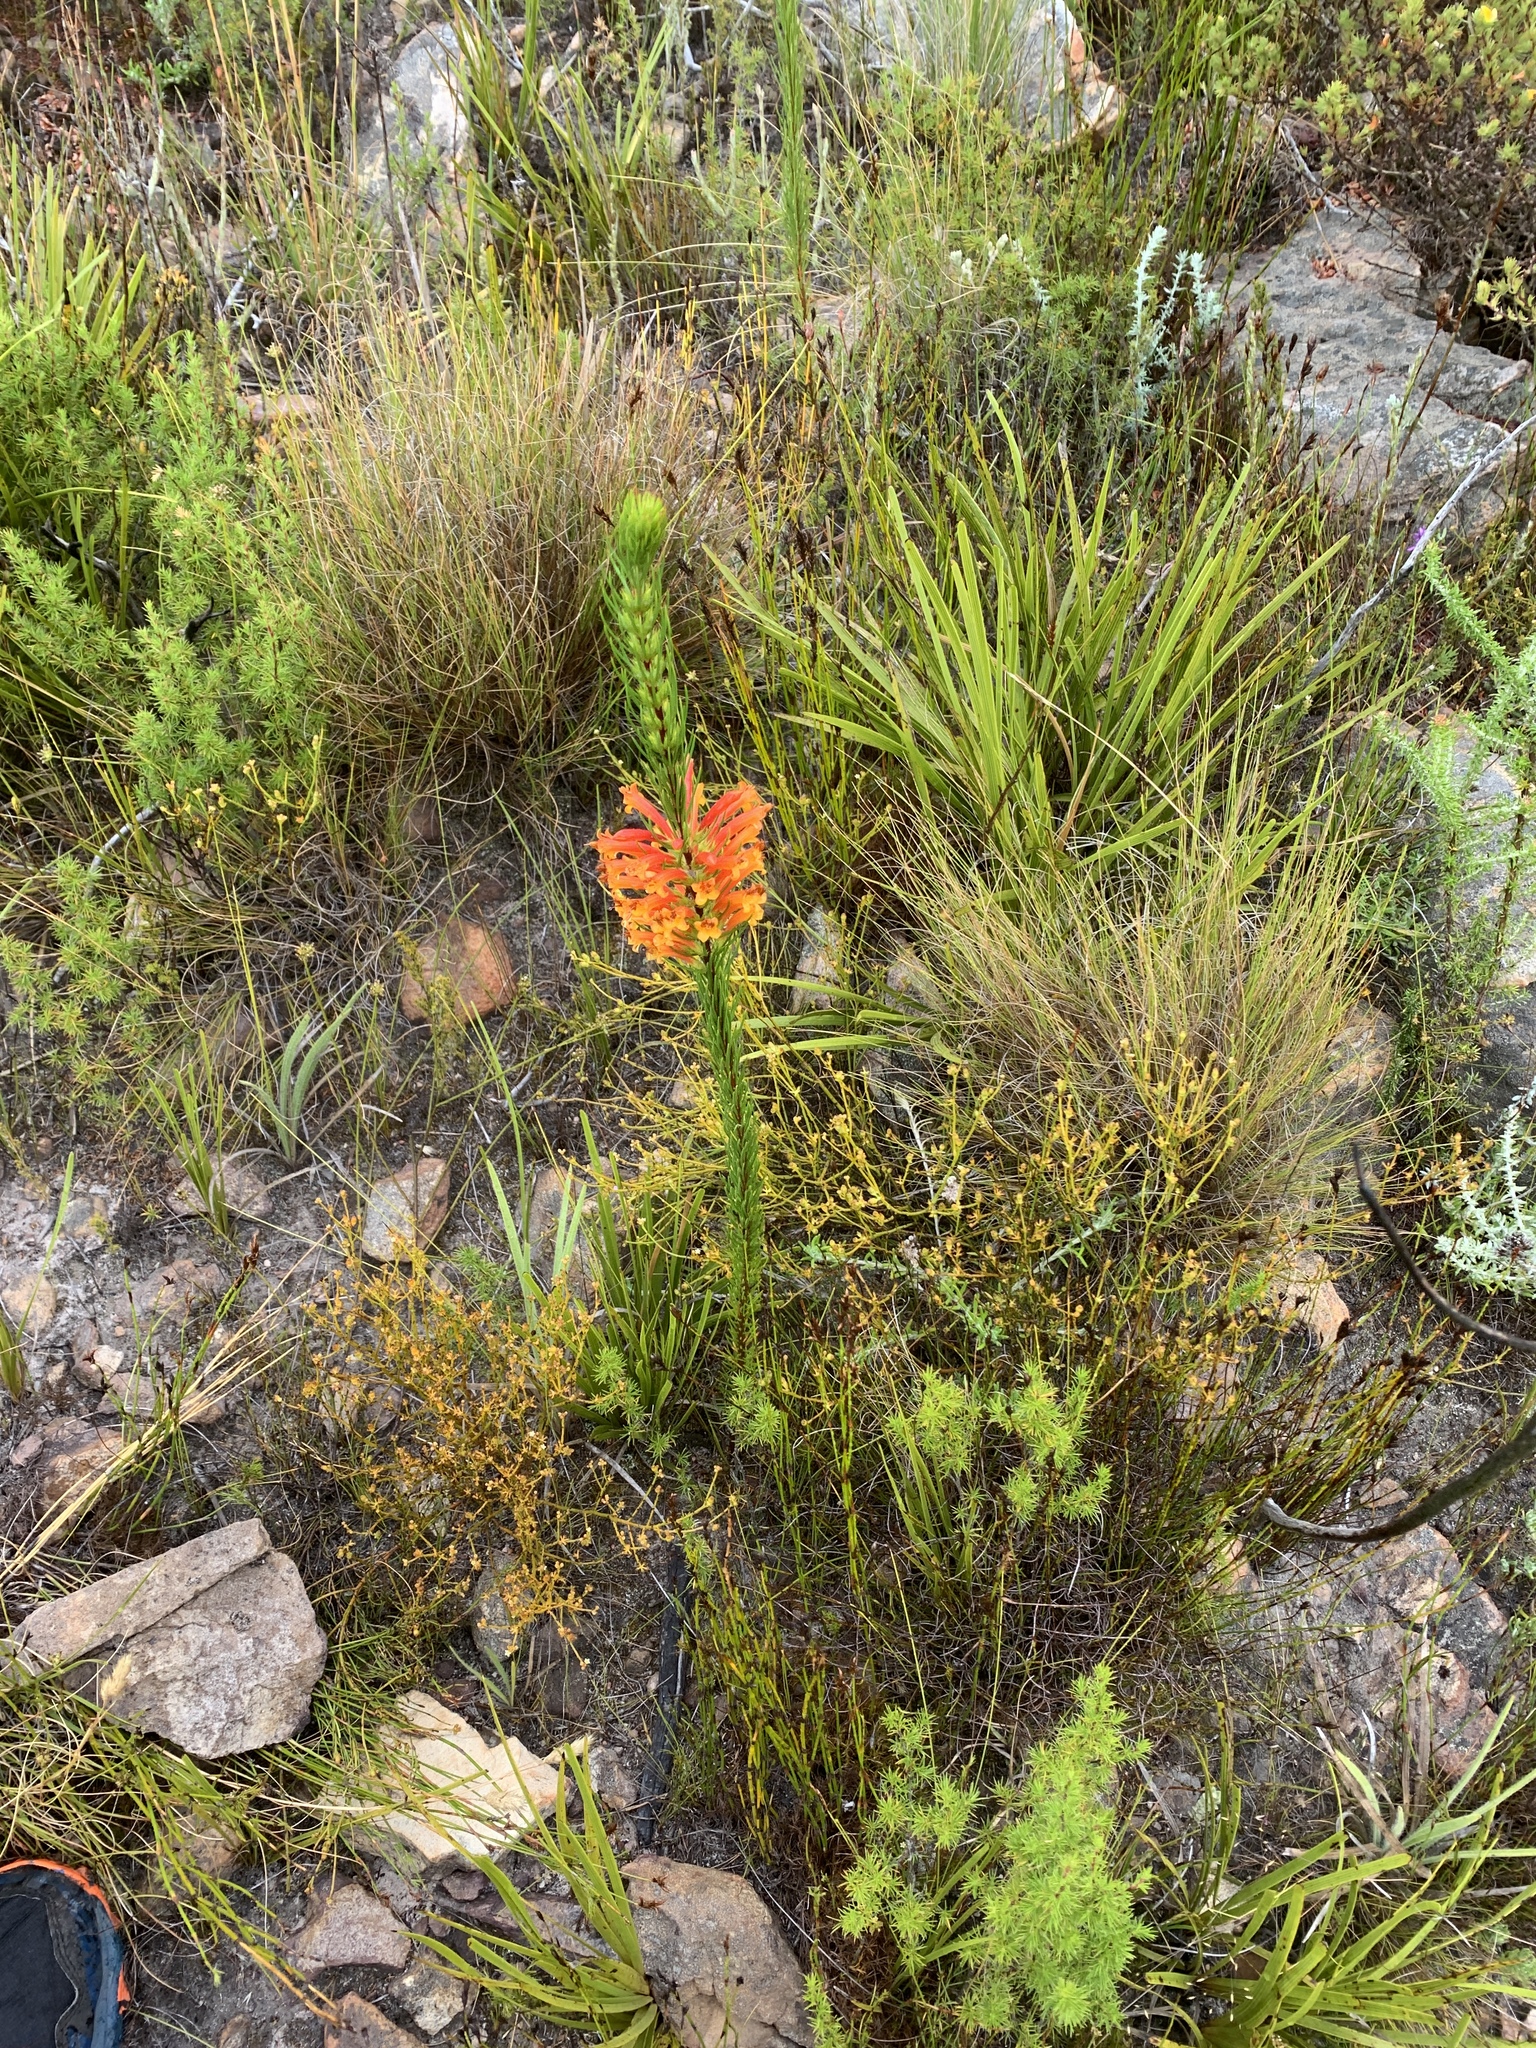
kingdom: Plantae
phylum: Tracheophyta
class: Magnoliopsida
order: Ericales
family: Ericaceae
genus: Erica
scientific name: Erica grandiflora
